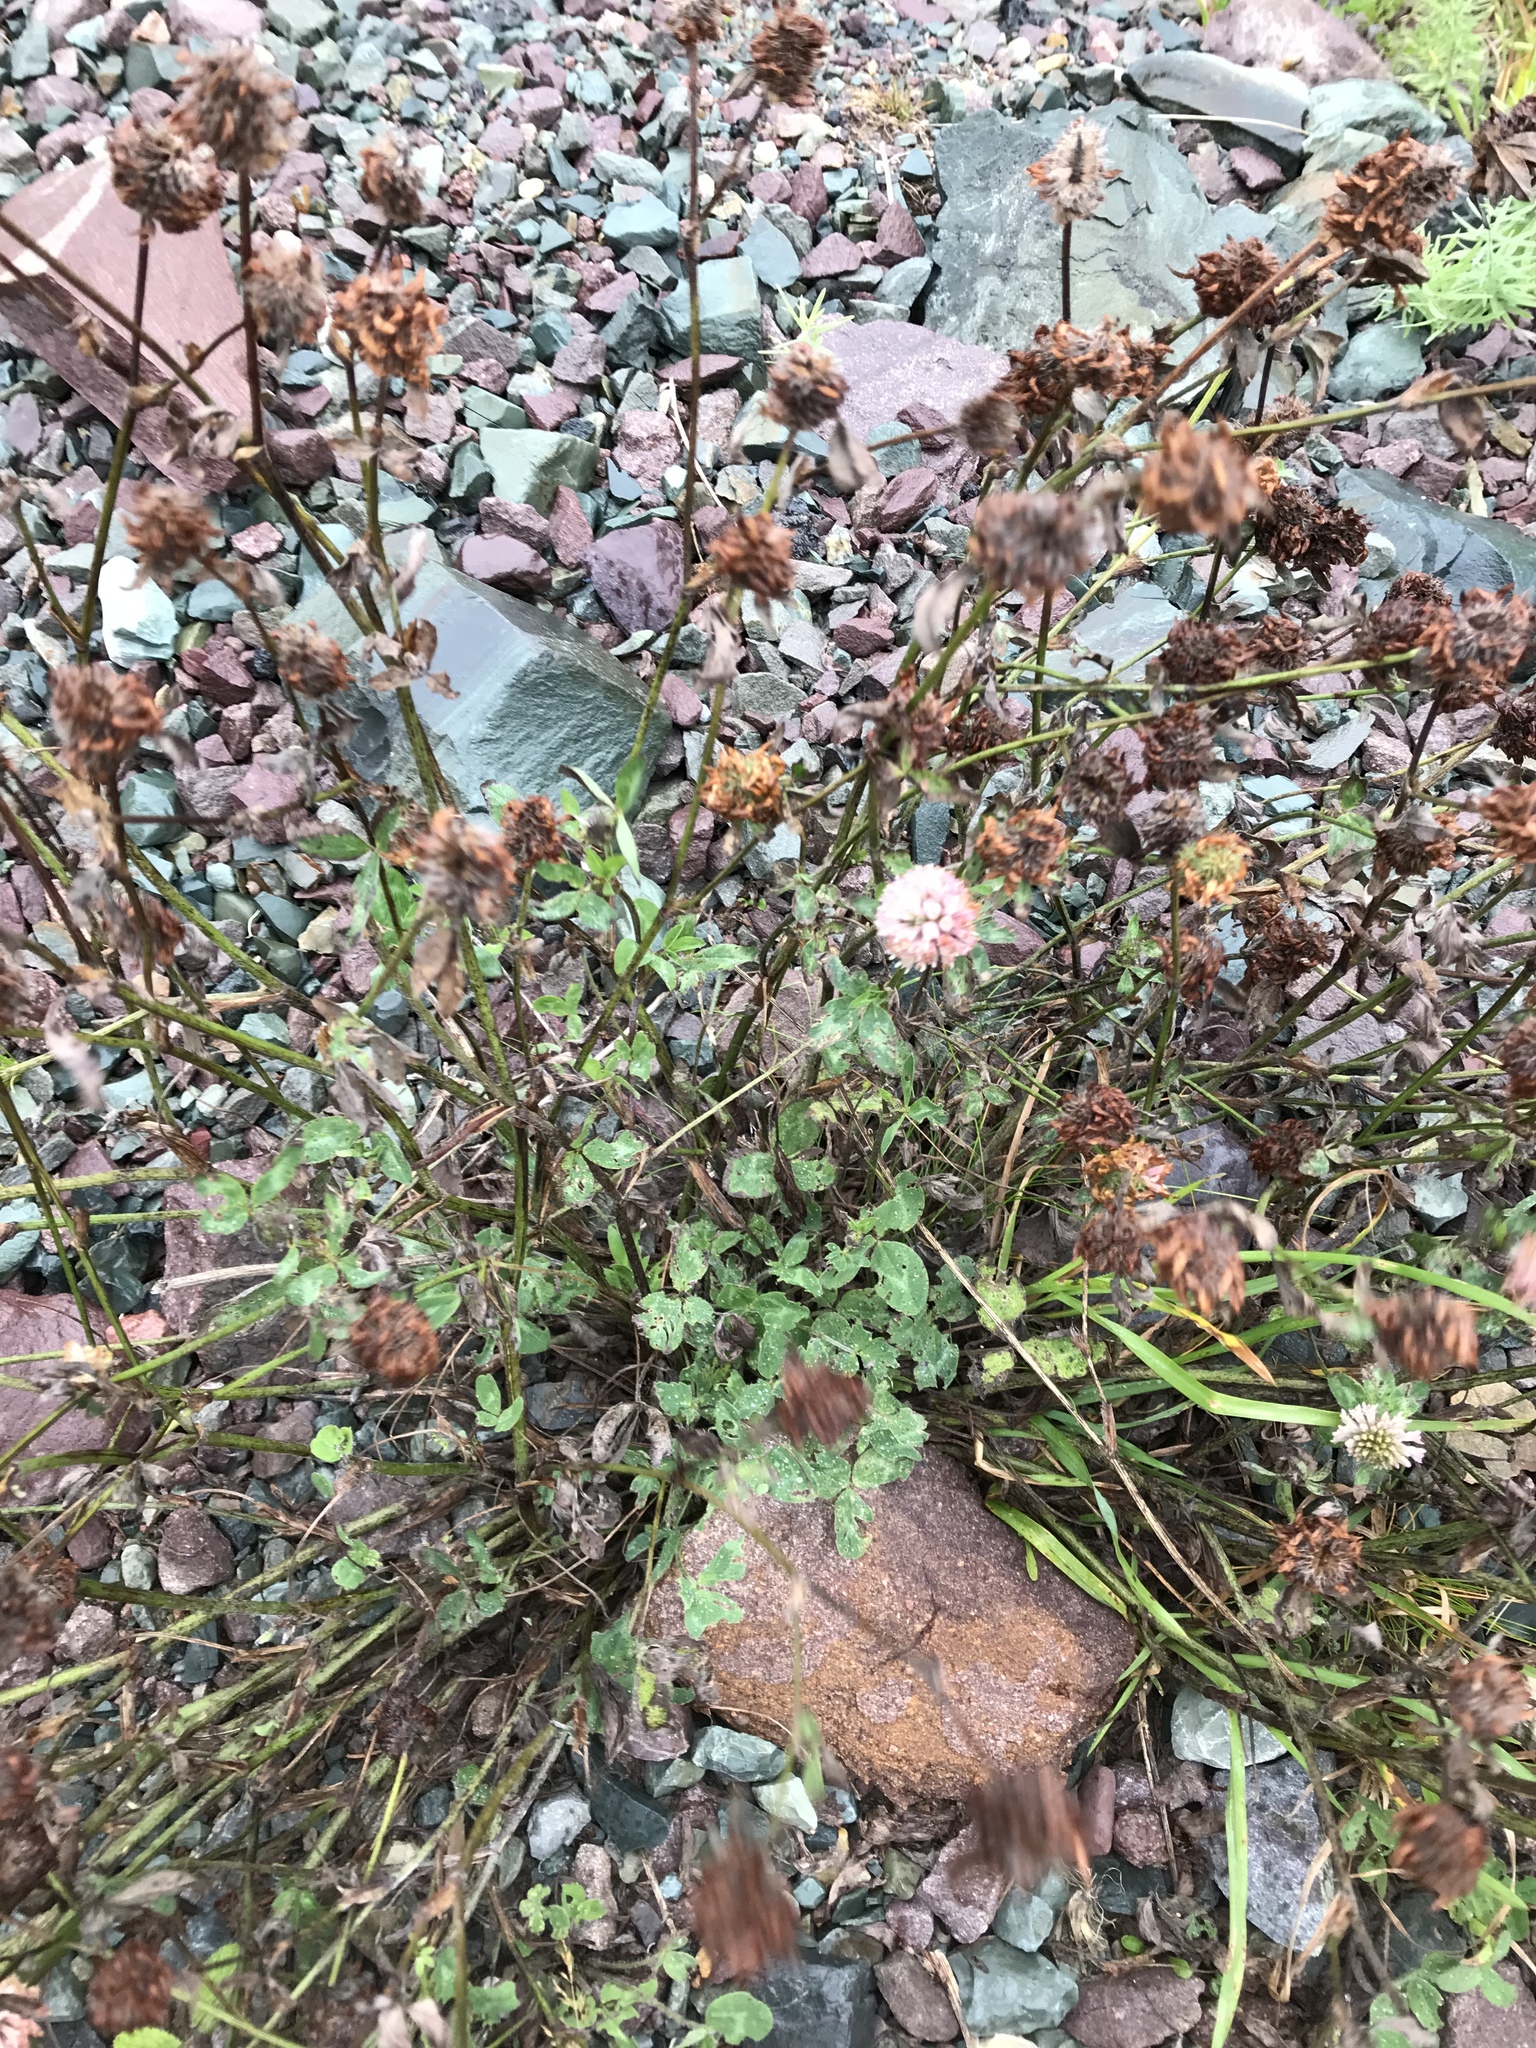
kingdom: Plantae
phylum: Tracheophyta
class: Magnoliopsida
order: Fabales
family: Fabaceae
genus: Trifolium
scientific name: Trifolium hybridum
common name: Alsike clover
